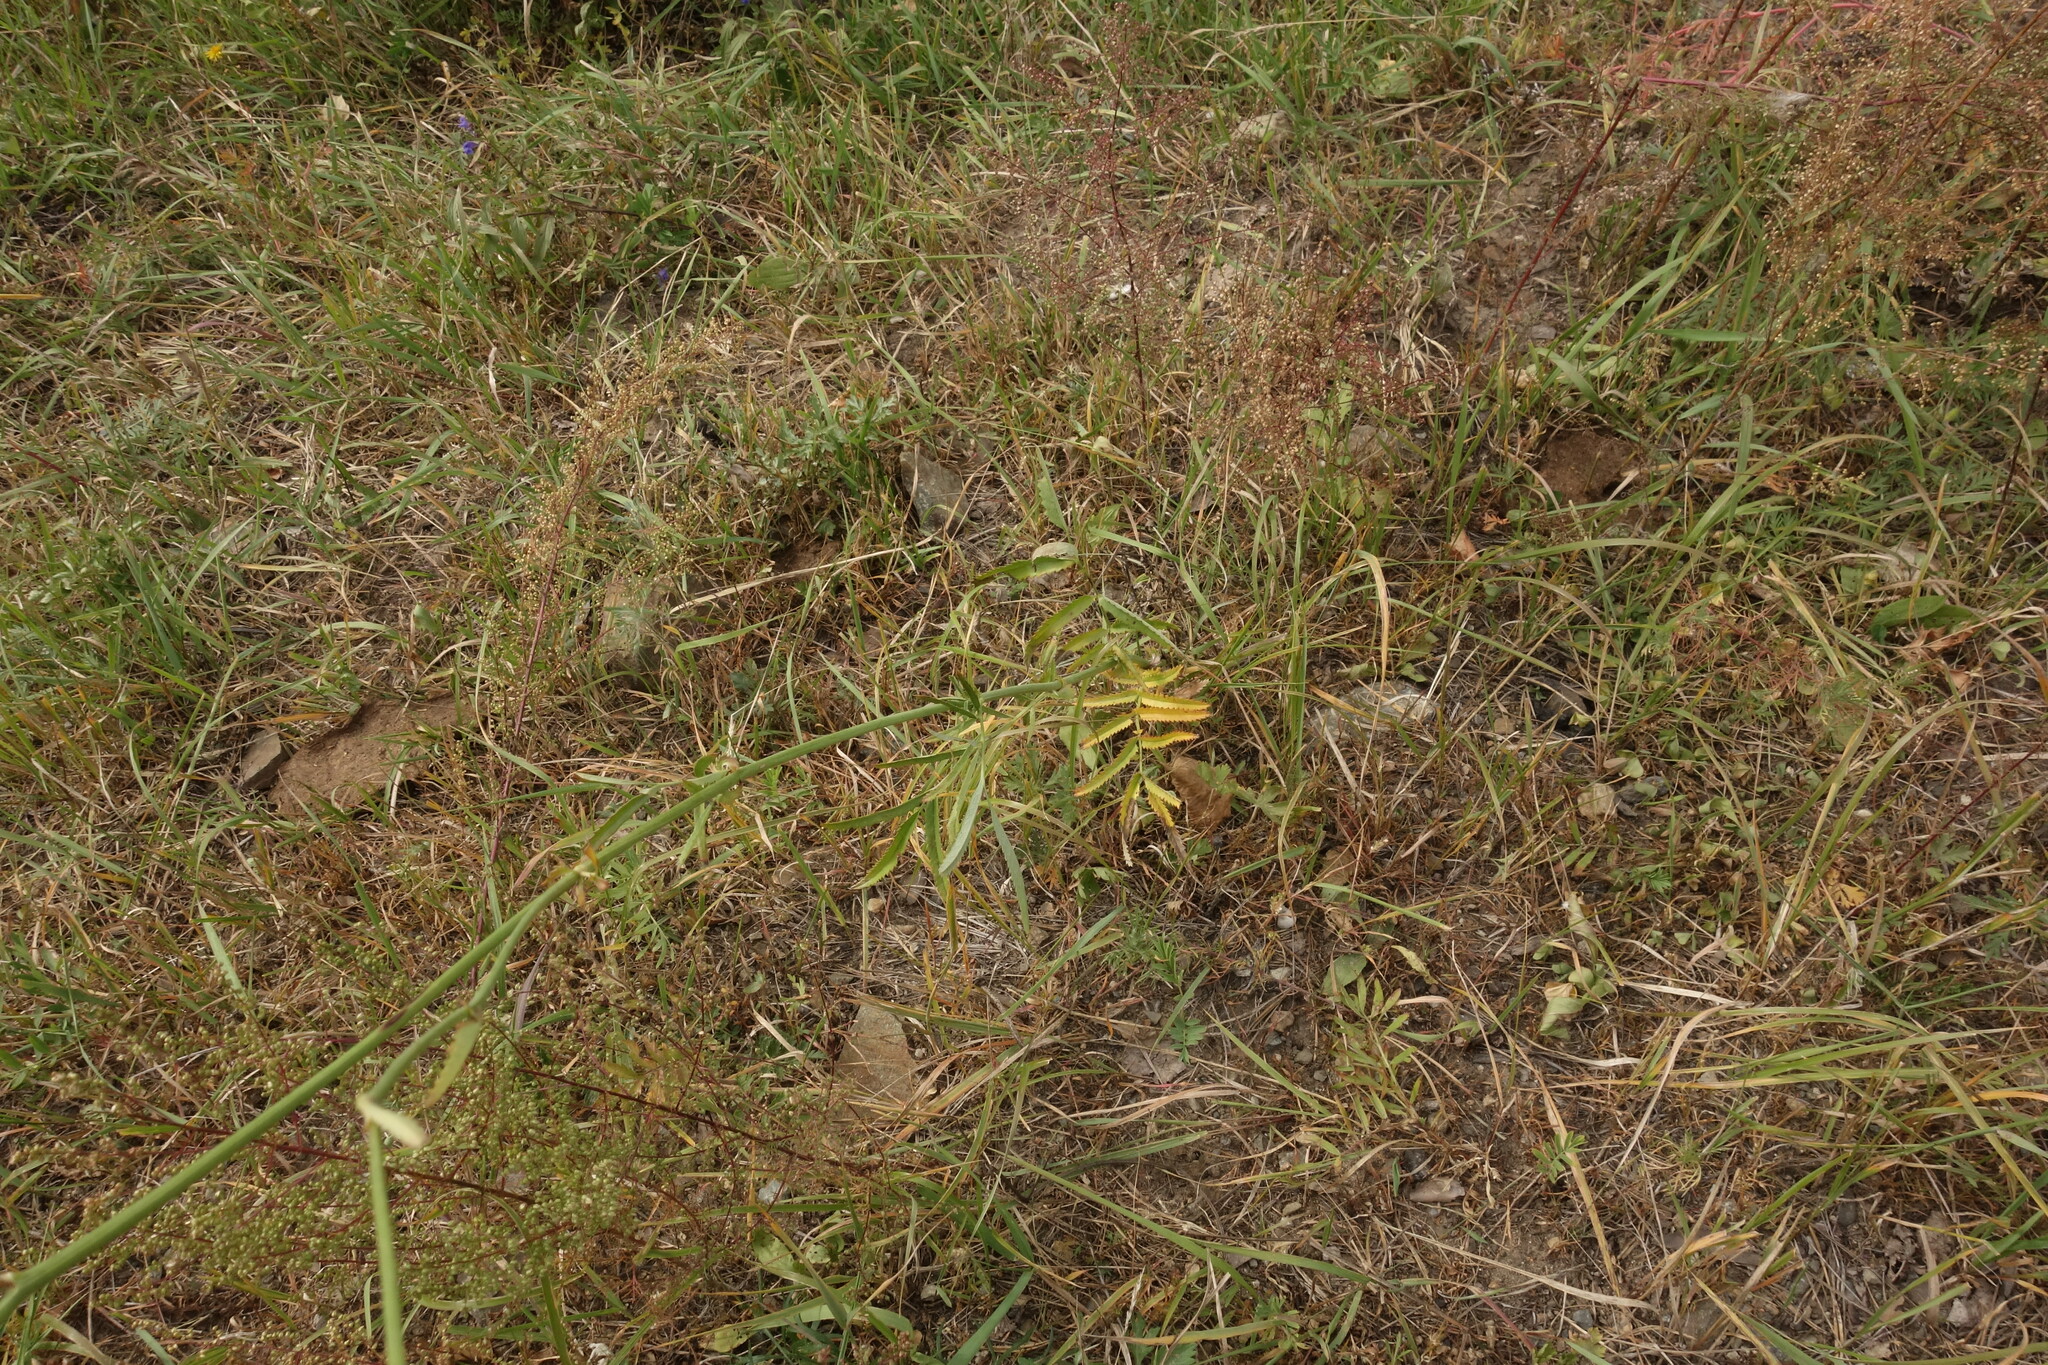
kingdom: Plantae
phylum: Tracheophyta
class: Magnoliopsida
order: Rosales
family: Rosaceae
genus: Poterium
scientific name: Poterium tenuifolium
